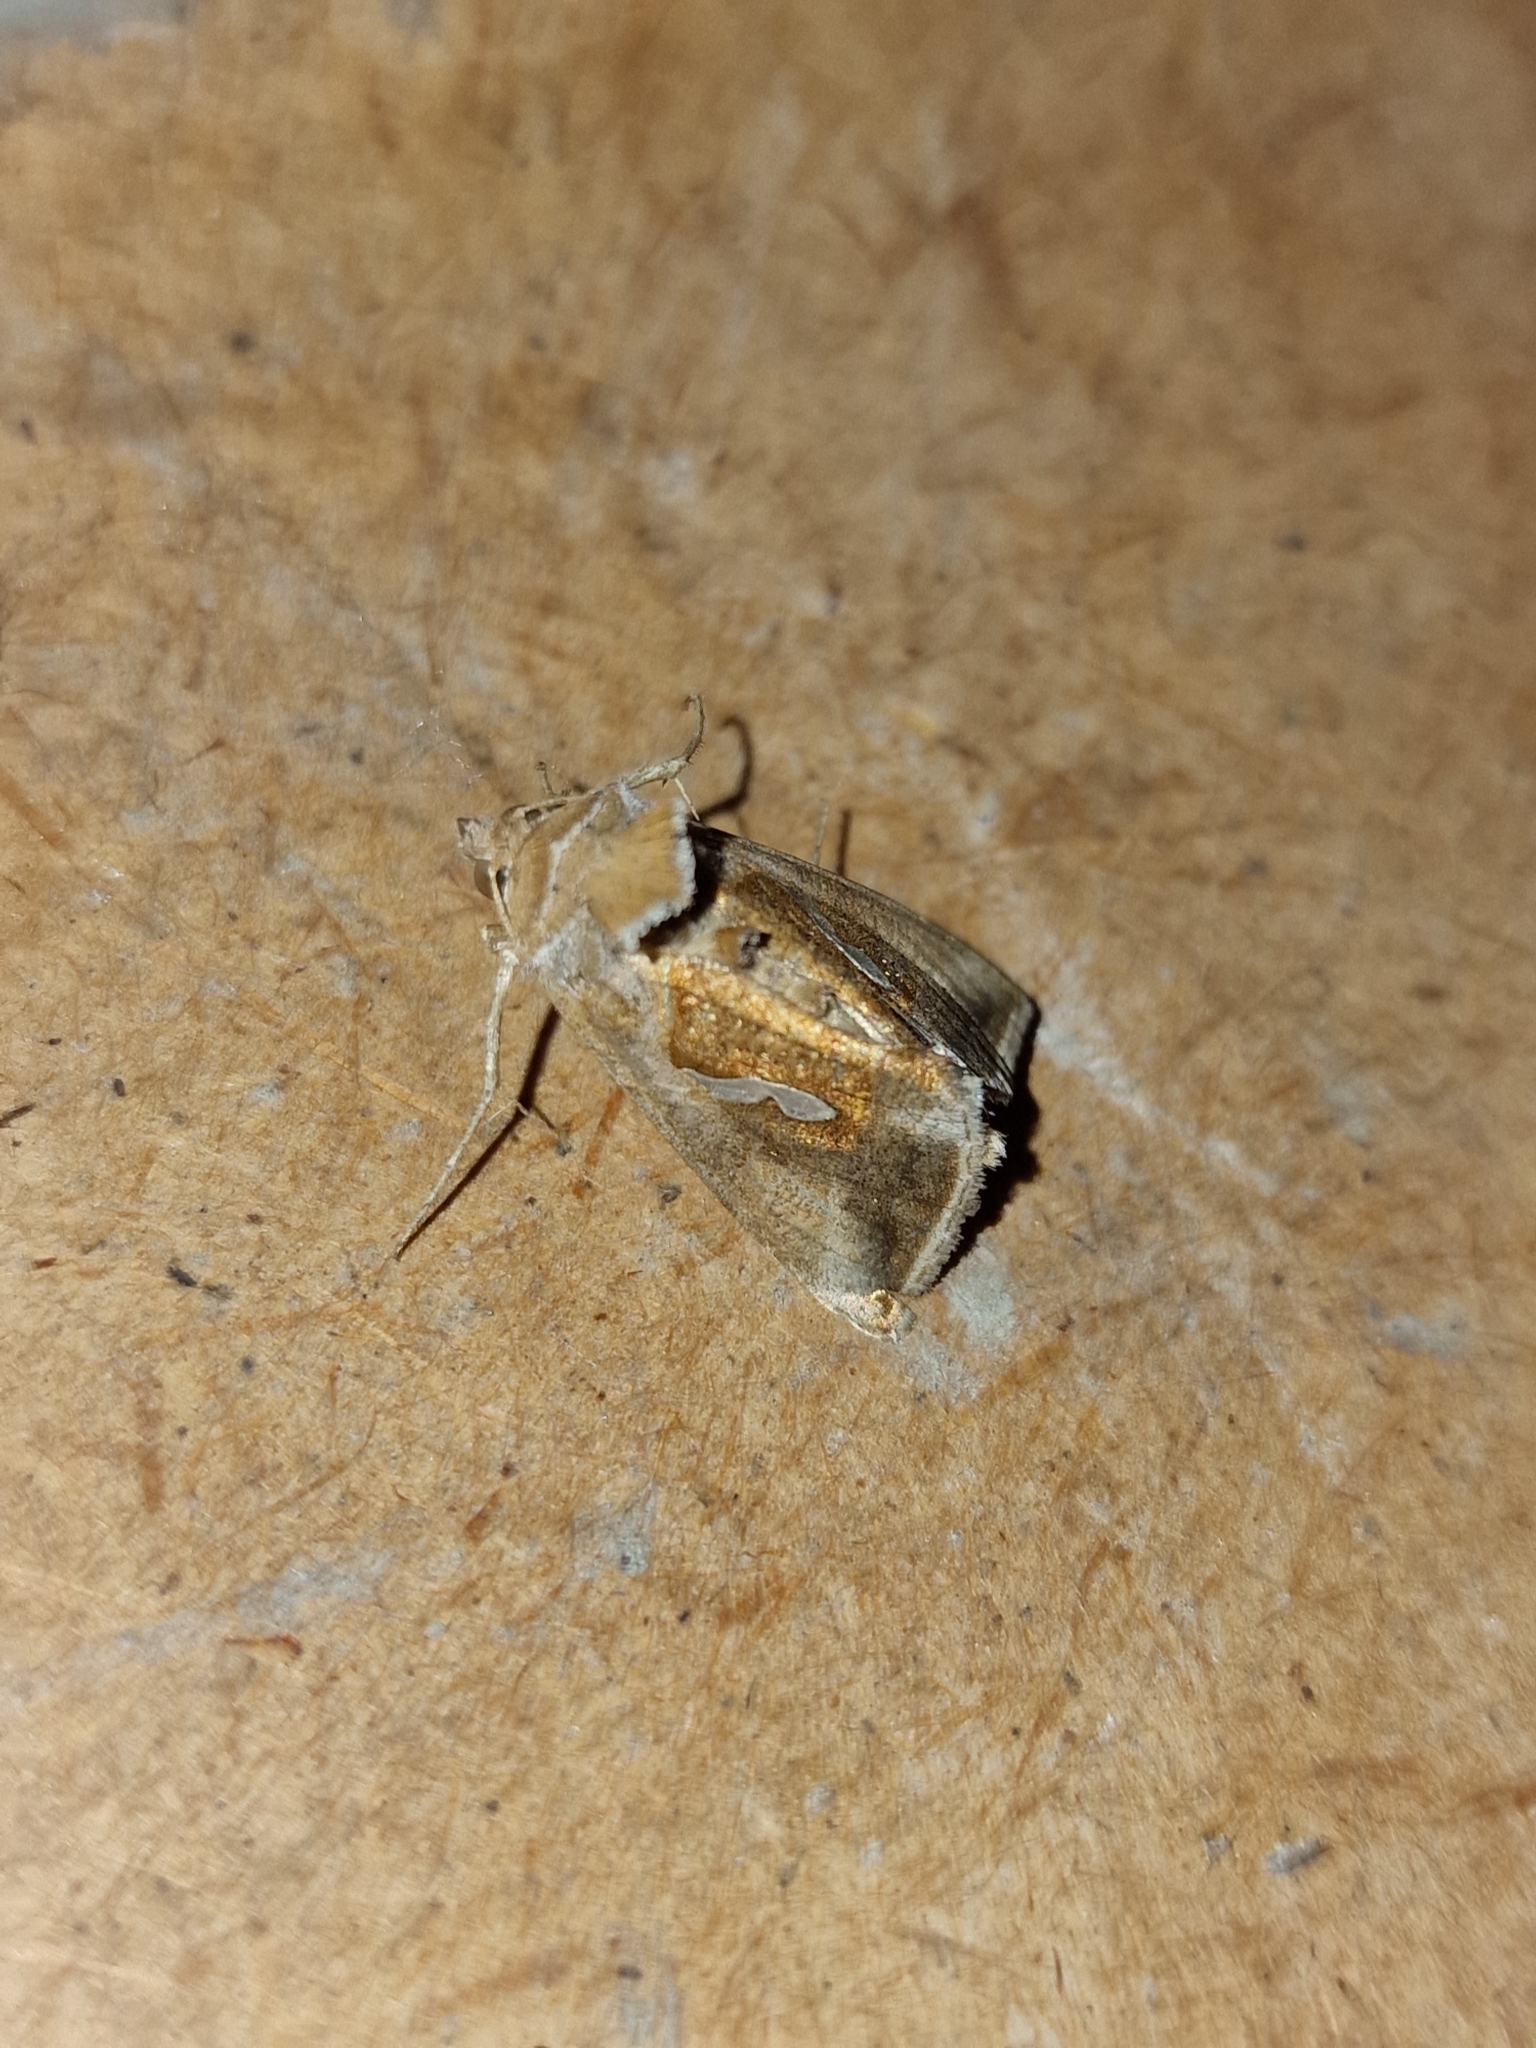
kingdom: Animalia
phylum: Arthropoda
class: Insecta
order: Lepidoptera
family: Noctuidae
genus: Macdunnoughia
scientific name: Macdunnoughia confusa
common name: Dewick's plusia
